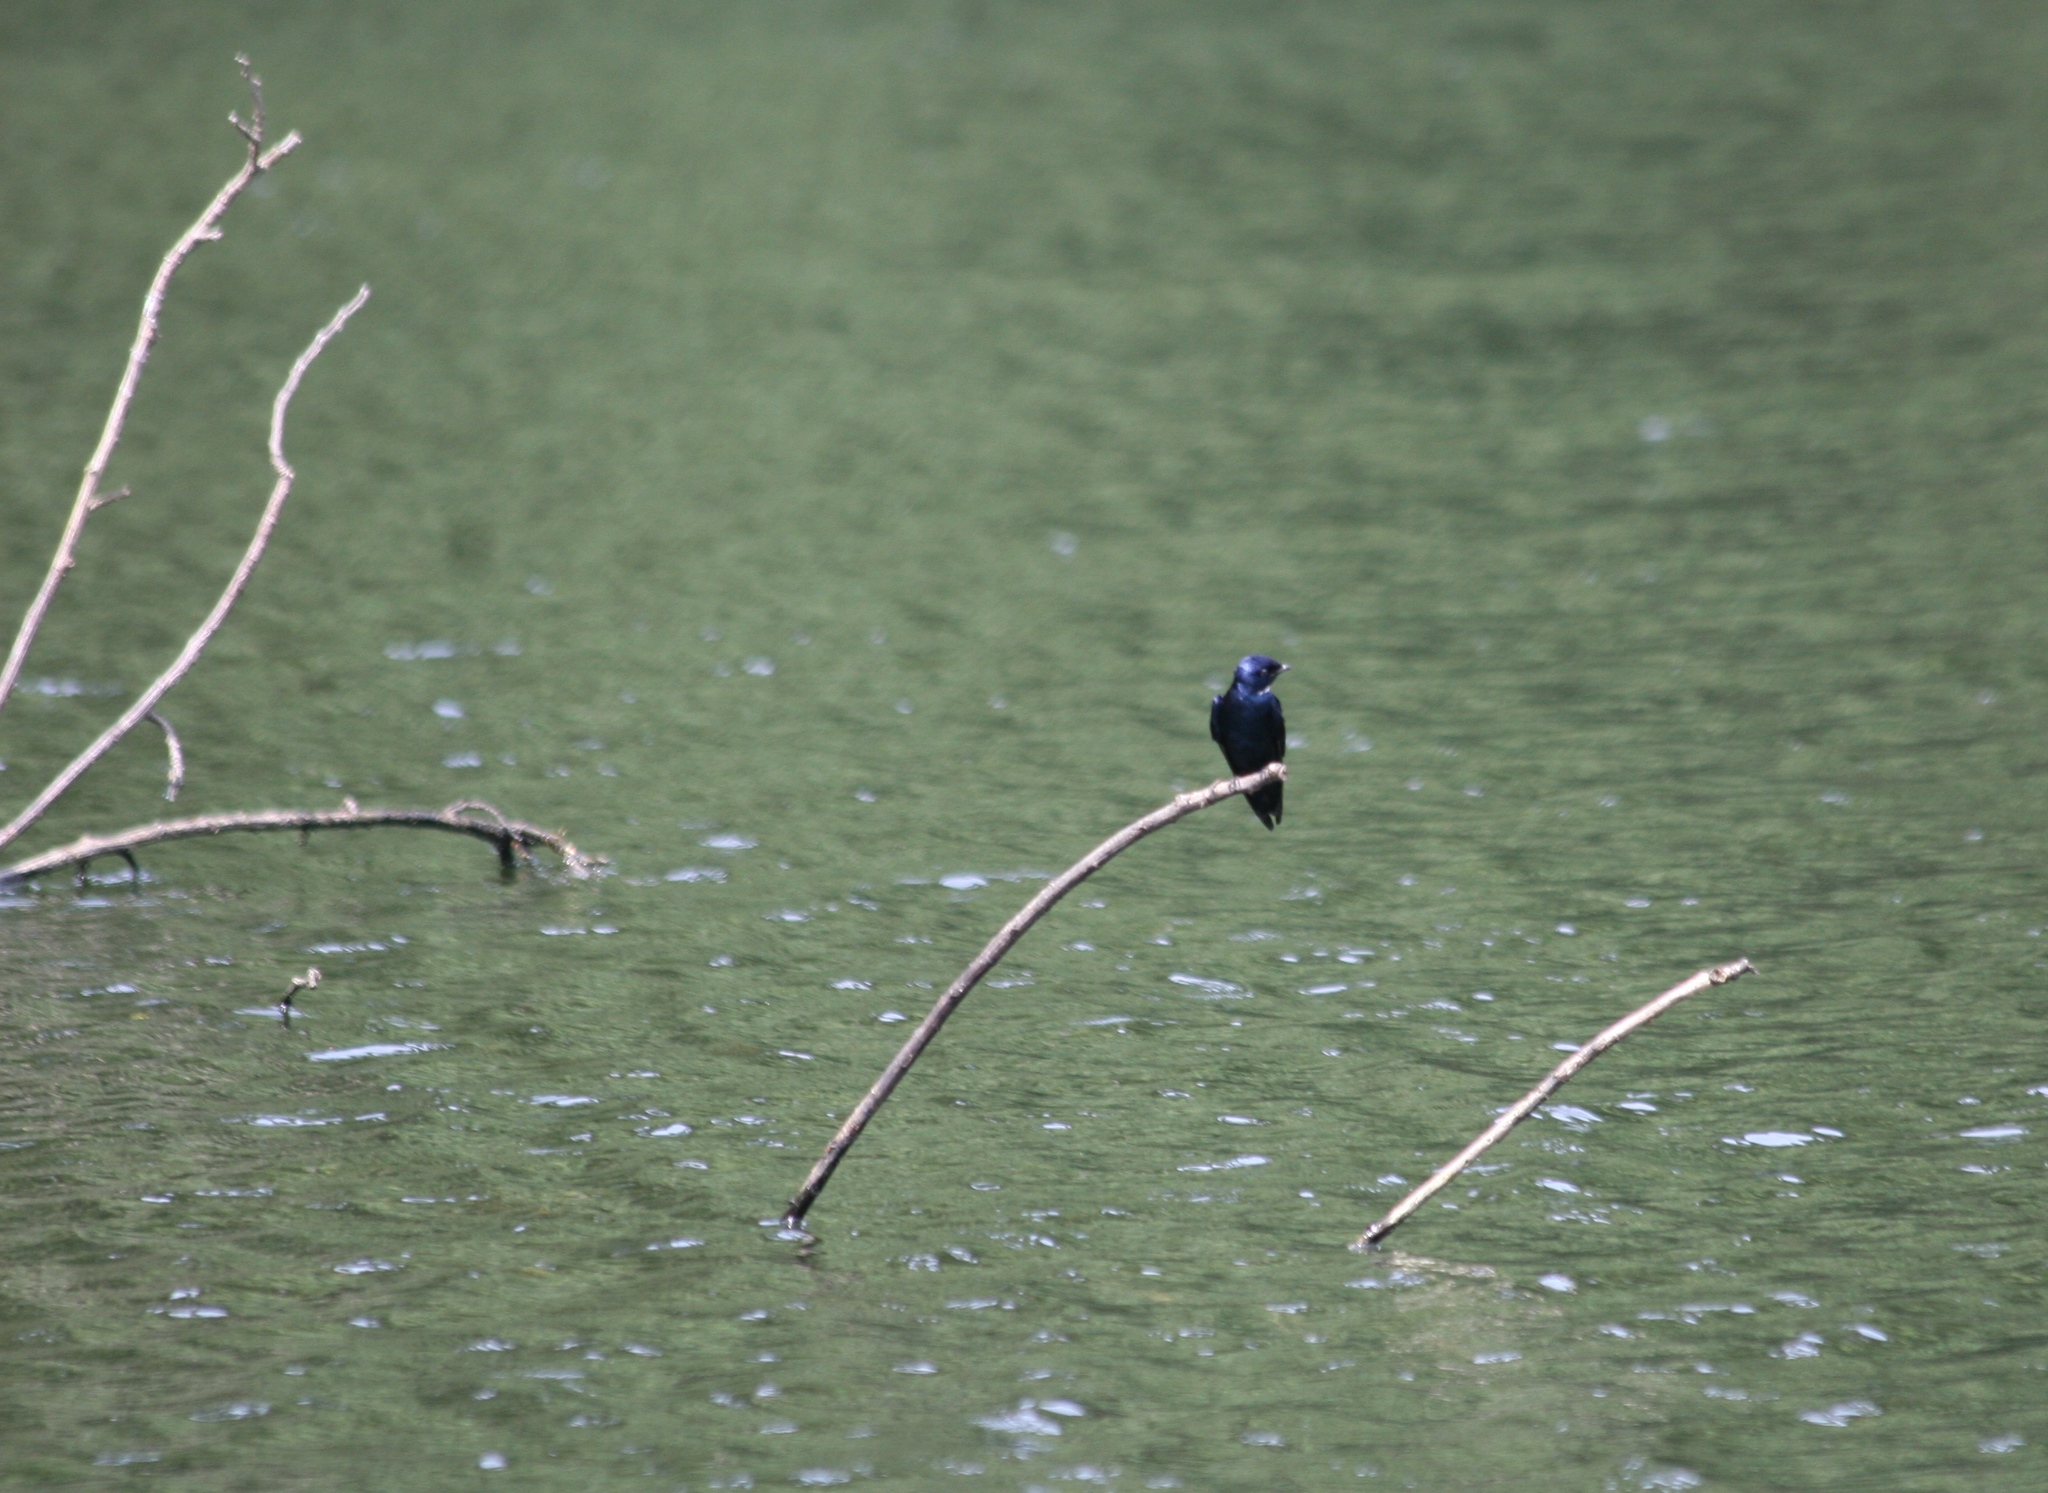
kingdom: Animalia
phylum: Chordata
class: Aves
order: Passeriformes
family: Hirundinidae
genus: Hirundo
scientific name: Hirundo nigrita
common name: White-bibbed swallow
